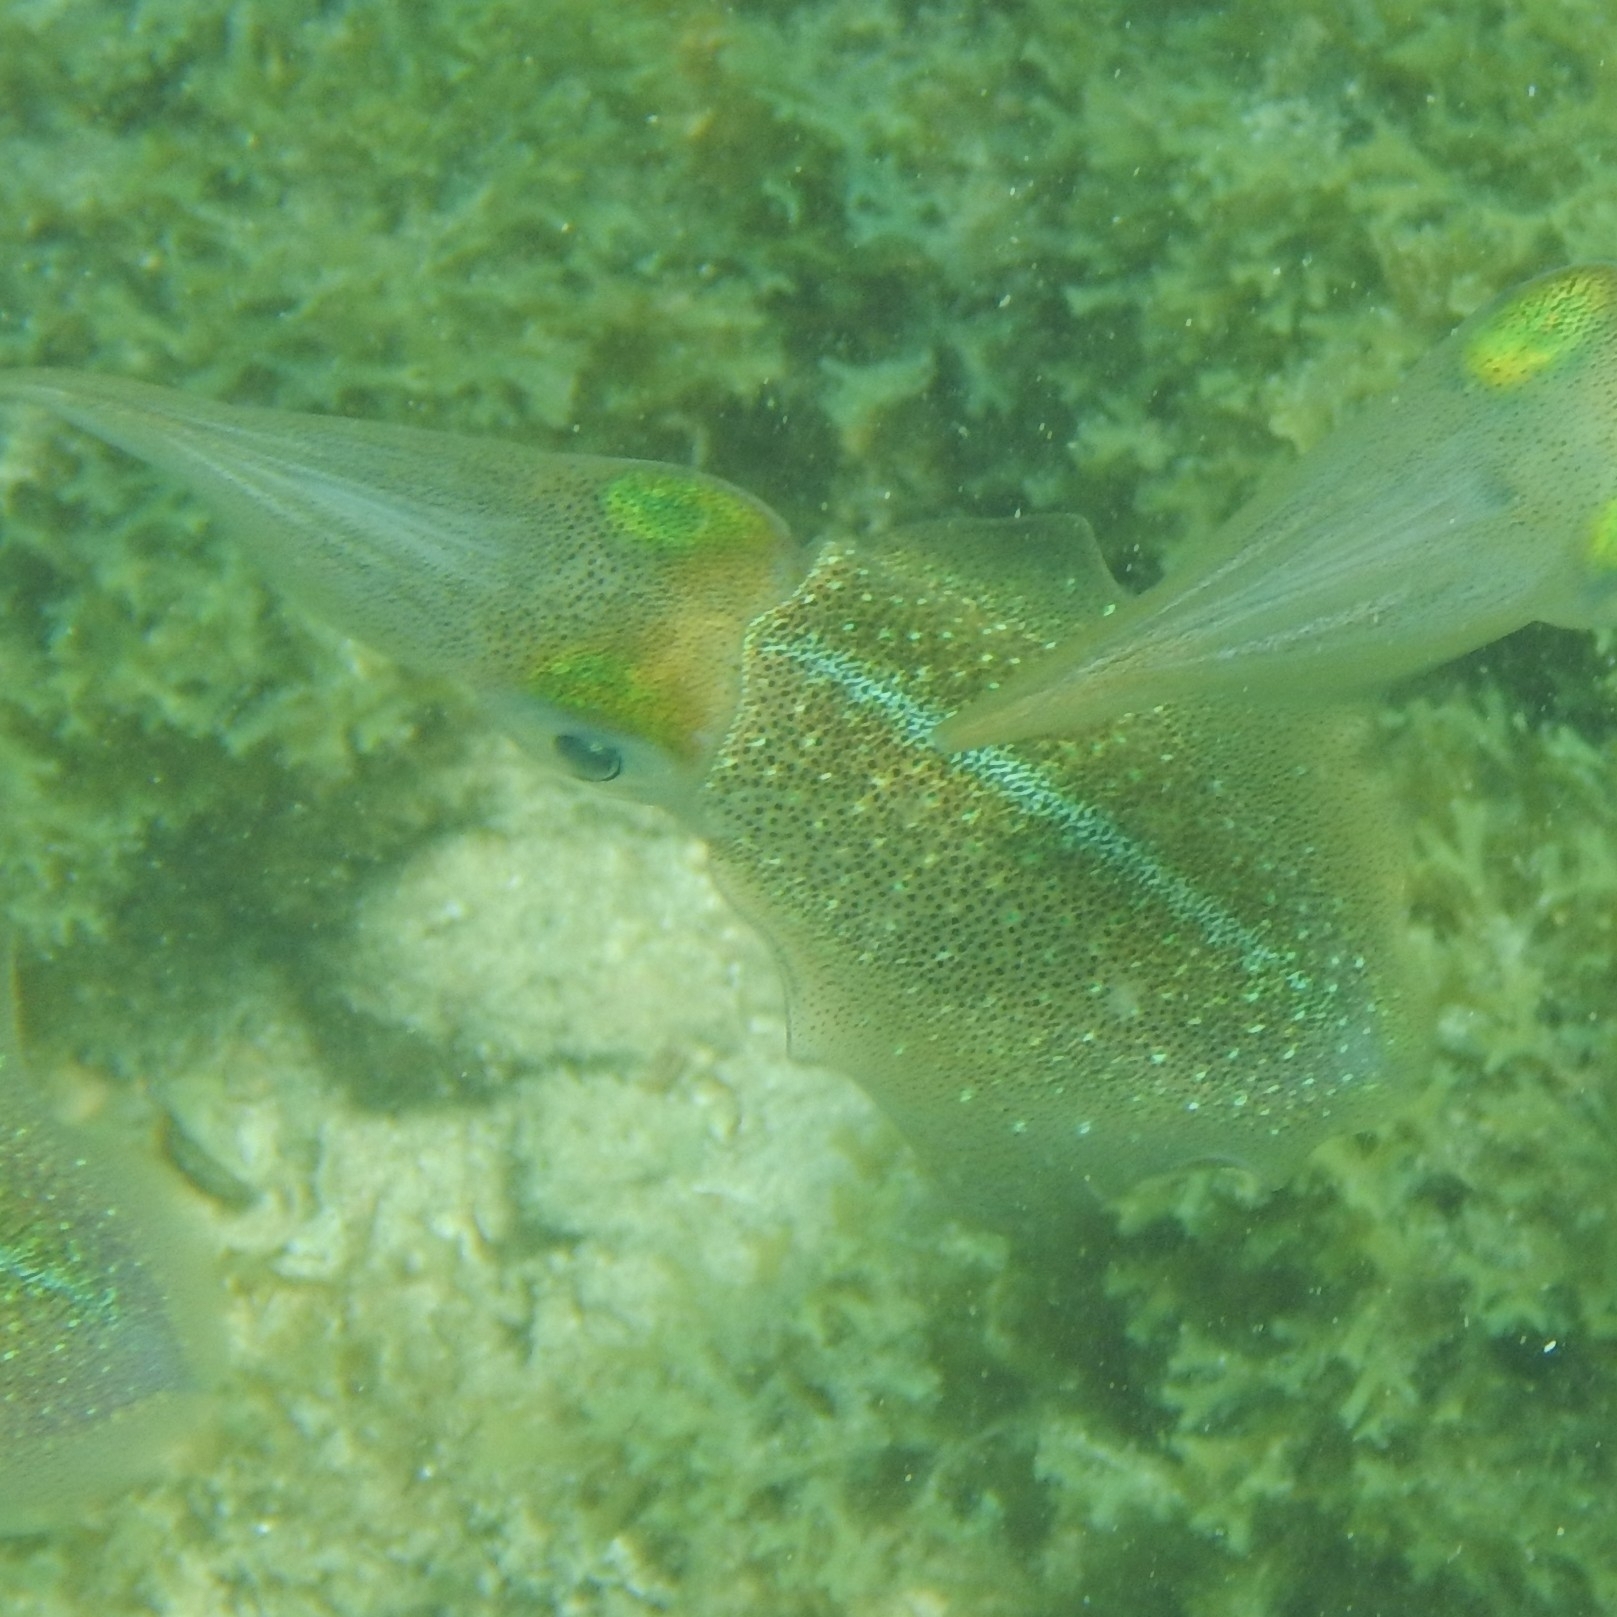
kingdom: Animalia
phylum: Mollusca
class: Cephalopoda
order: Myopsida
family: Loliginidae
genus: Sepioteuthis
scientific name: Sepioteuthis sepioidea
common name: Caribbean reef squid
